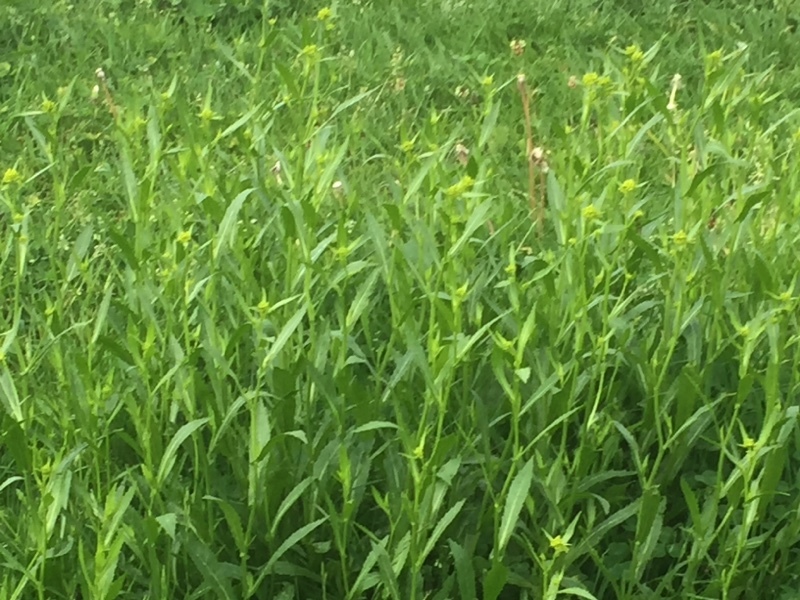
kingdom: Plantae
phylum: Tracheophyta
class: Magnoliopsida
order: Brassicales
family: Brassicaceae
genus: Rorippa
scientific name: Rorippa austriaca
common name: Austrian yellow-cress
